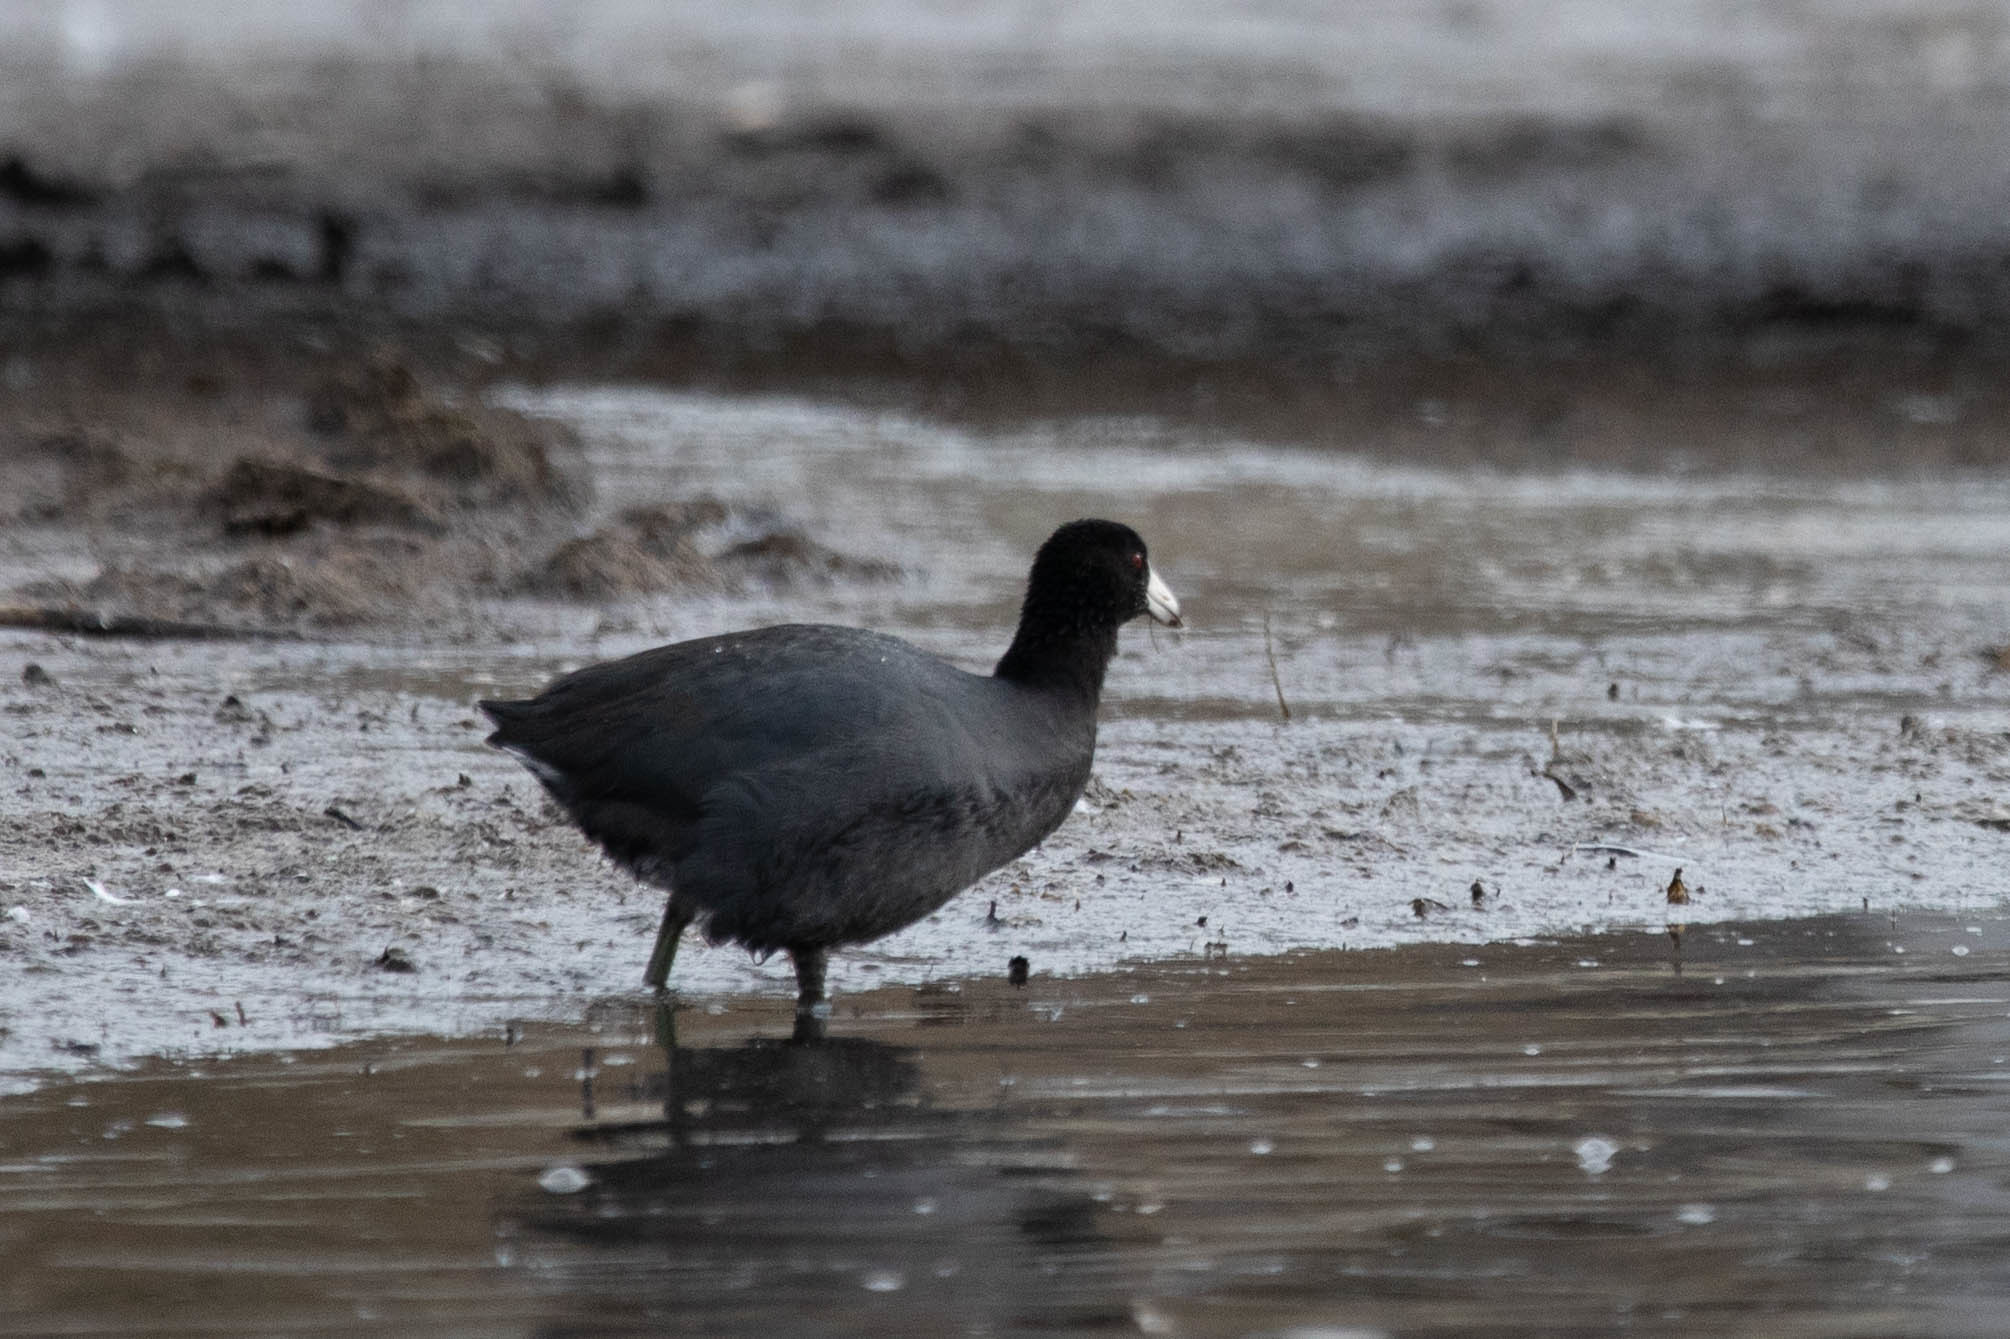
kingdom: Animalia
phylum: Chordata
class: Aves
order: Gruiformes
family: Rallidae
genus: Fulica
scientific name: Fulica americana
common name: American coot
